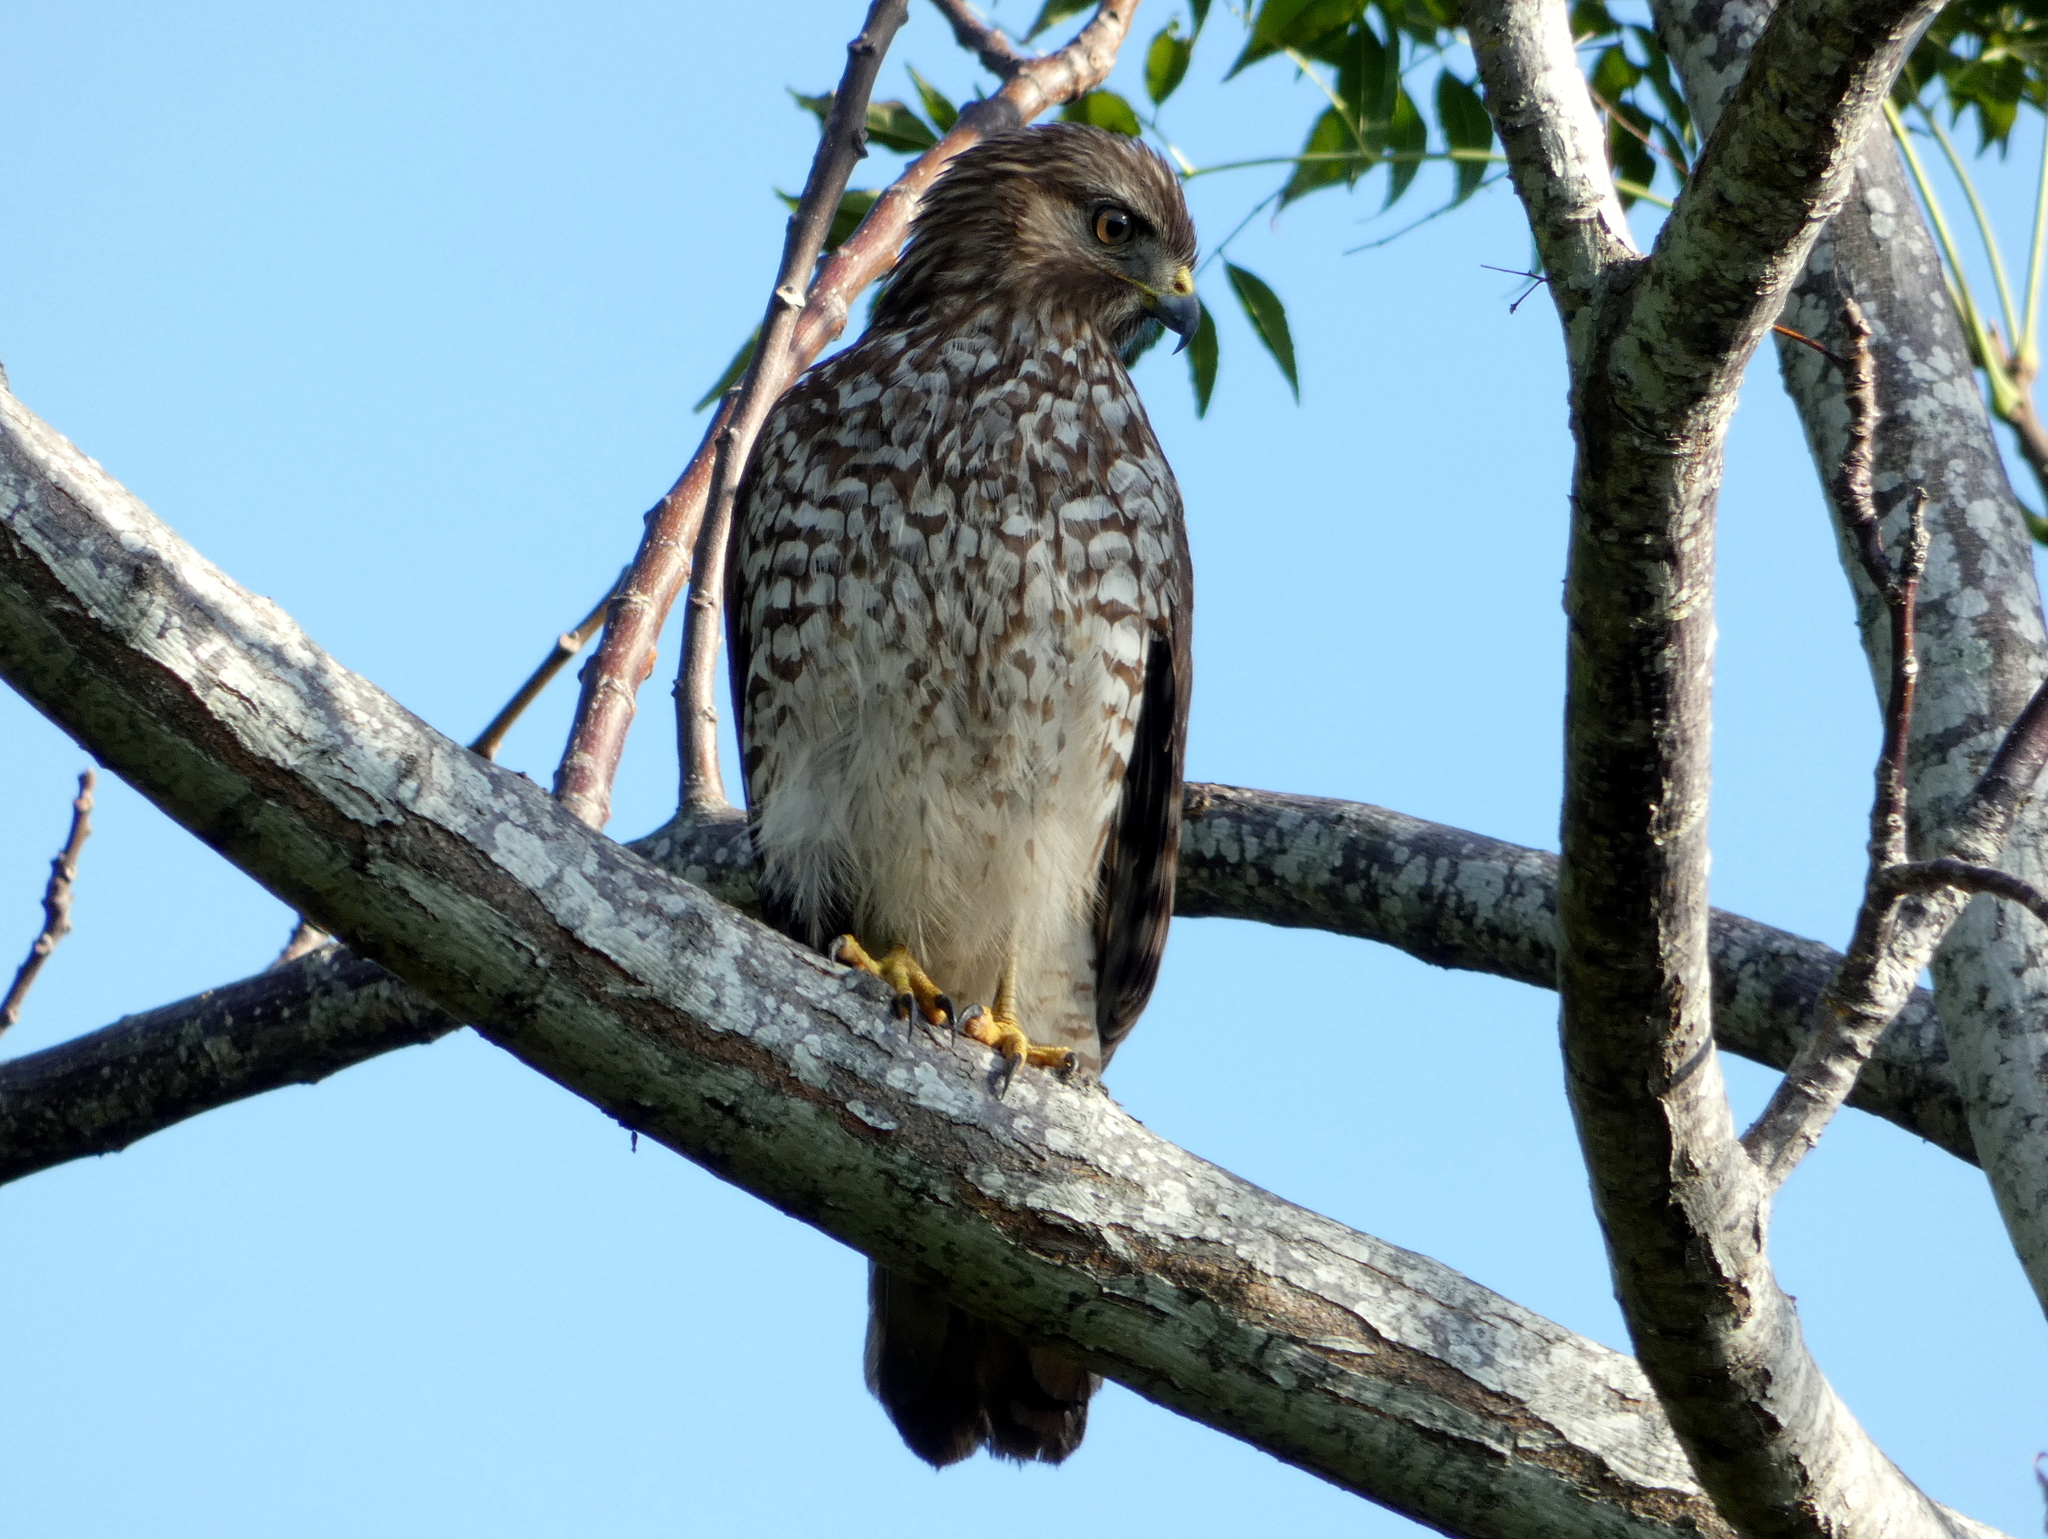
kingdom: Animalia
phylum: Chordata
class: Aves
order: Accipitriformes
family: Accipitridae
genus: Buteo
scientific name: Buteo lineatus
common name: Red-shouldered hawk
